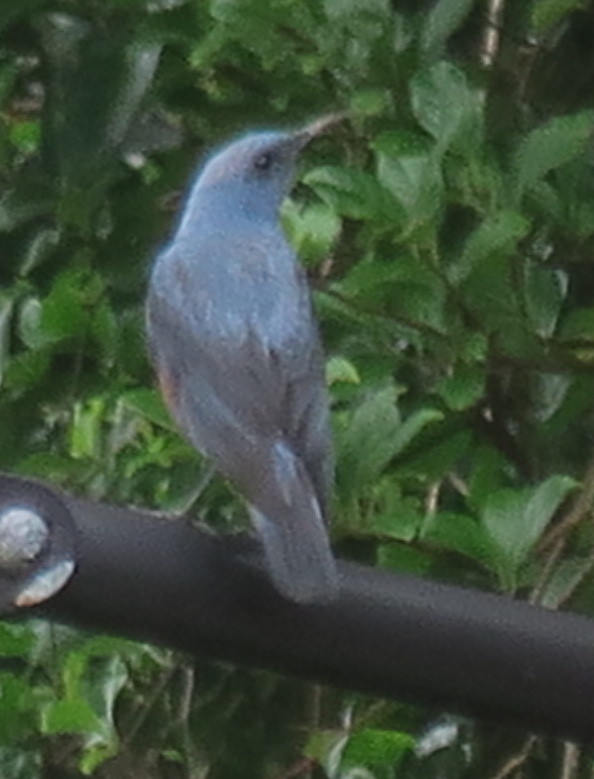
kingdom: Animalia
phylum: Chordata
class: Aves
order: Passeriformes
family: Muscicapidae
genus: Monticola
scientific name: Monticola solitarius
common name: Blue rock thrush
